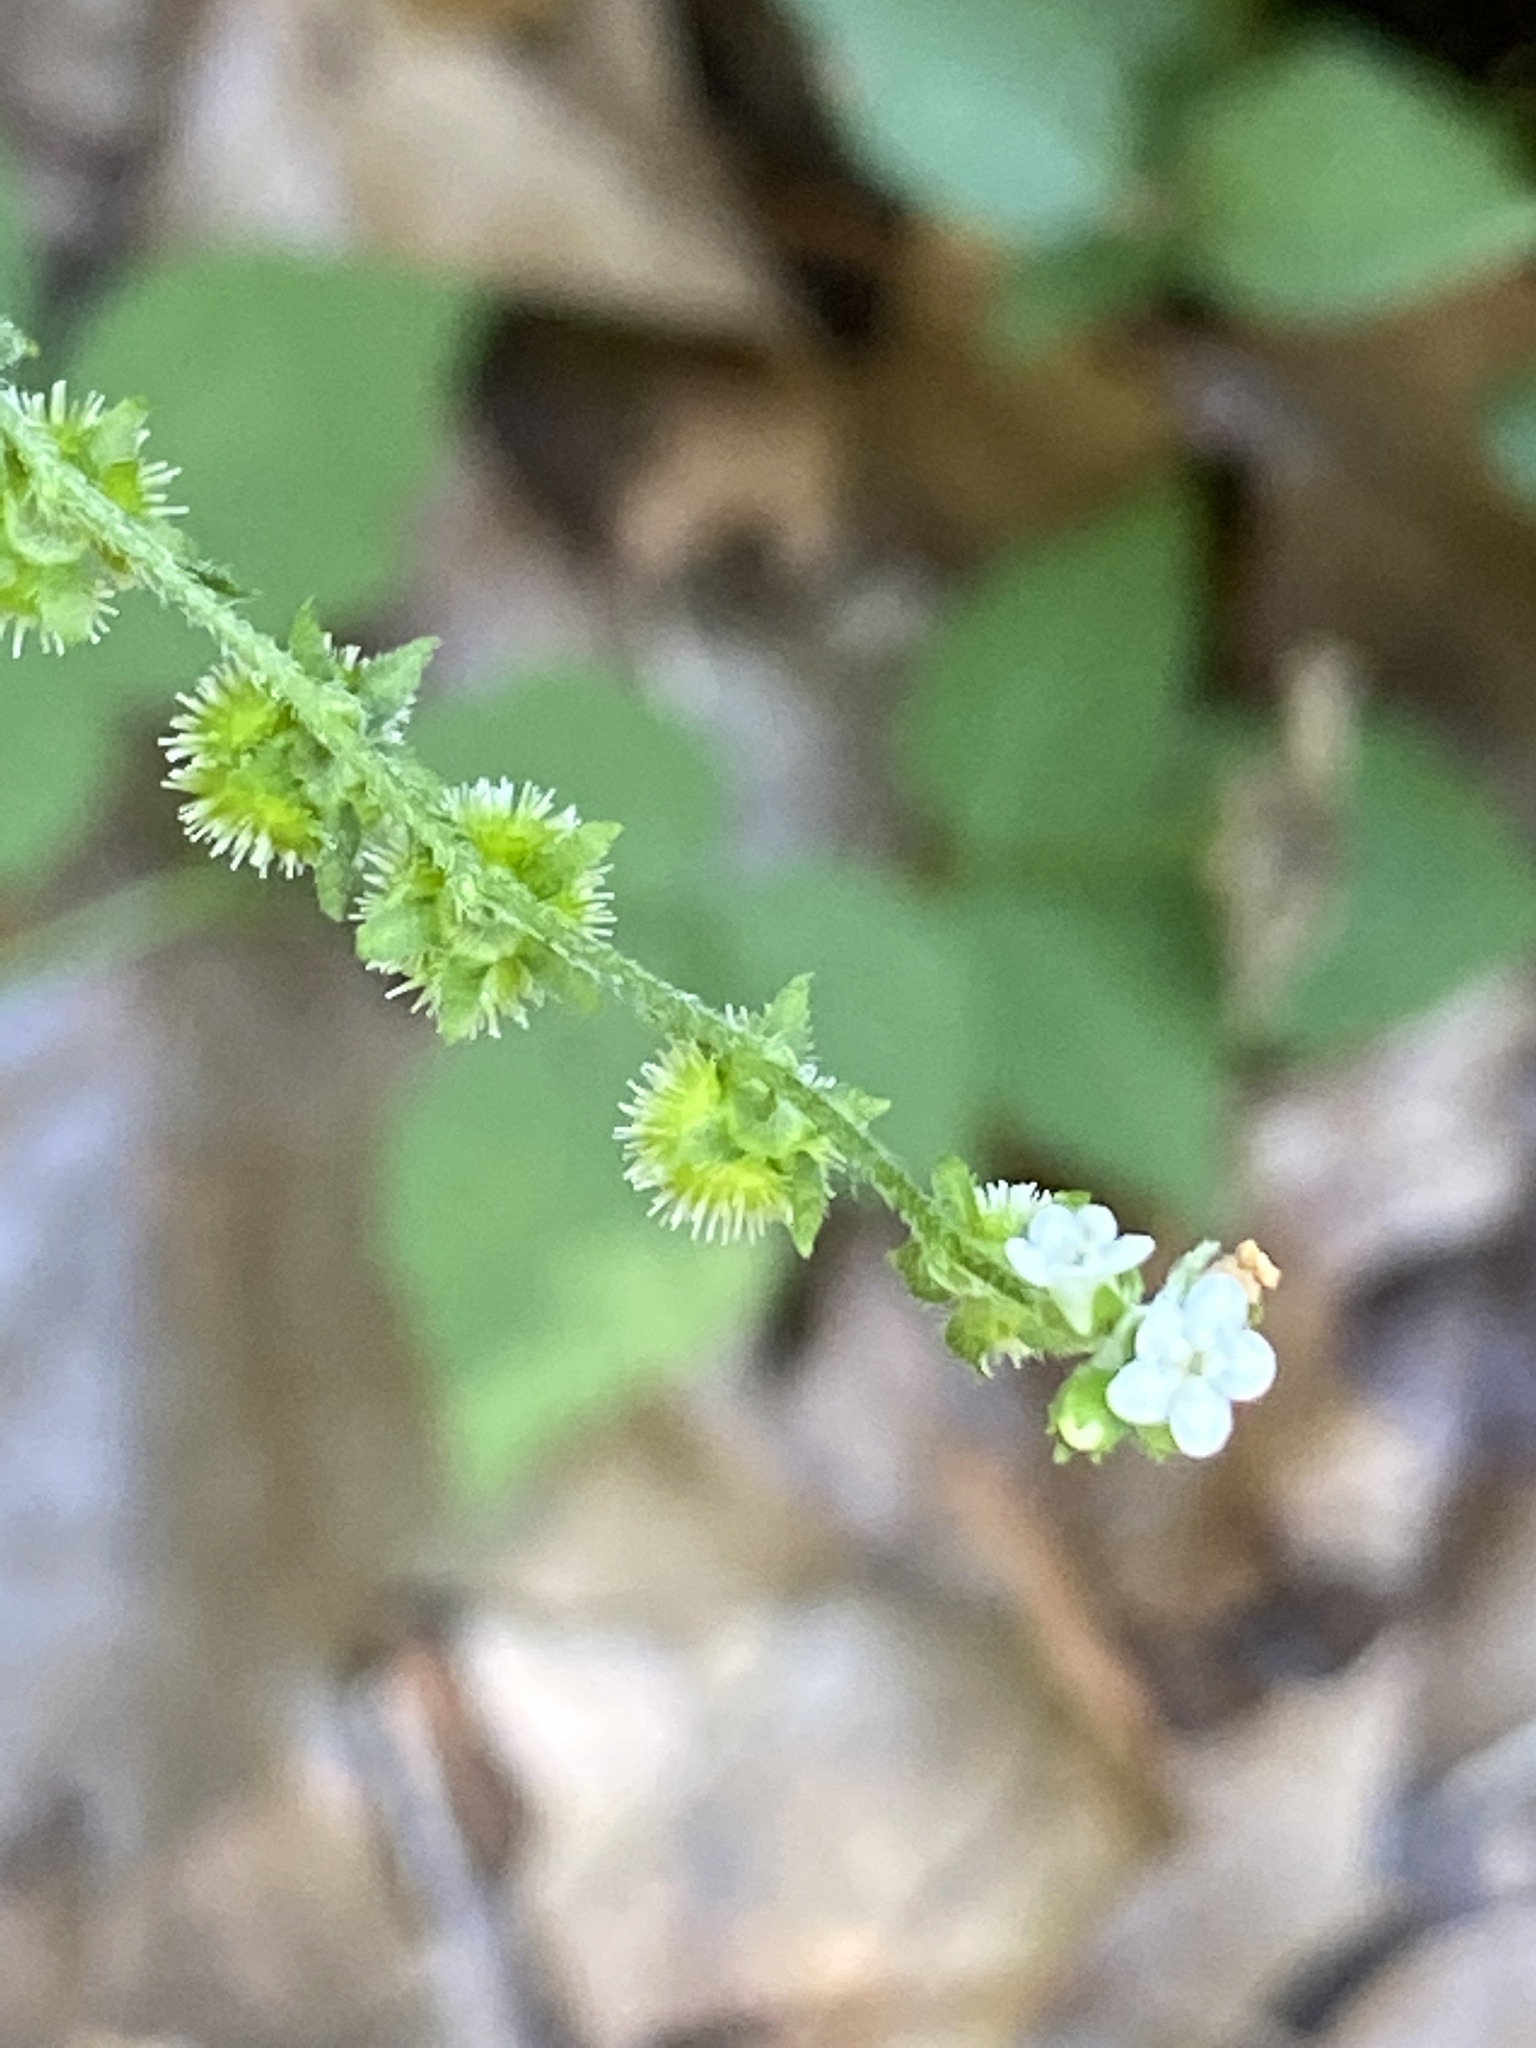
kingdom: Plantae
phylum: Tracheophyta
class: Magnoliopsida
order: Boraginales
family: Boraginaceae
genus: Hackelia
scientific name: Hackelia virginiana
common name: Beggar's-lice
